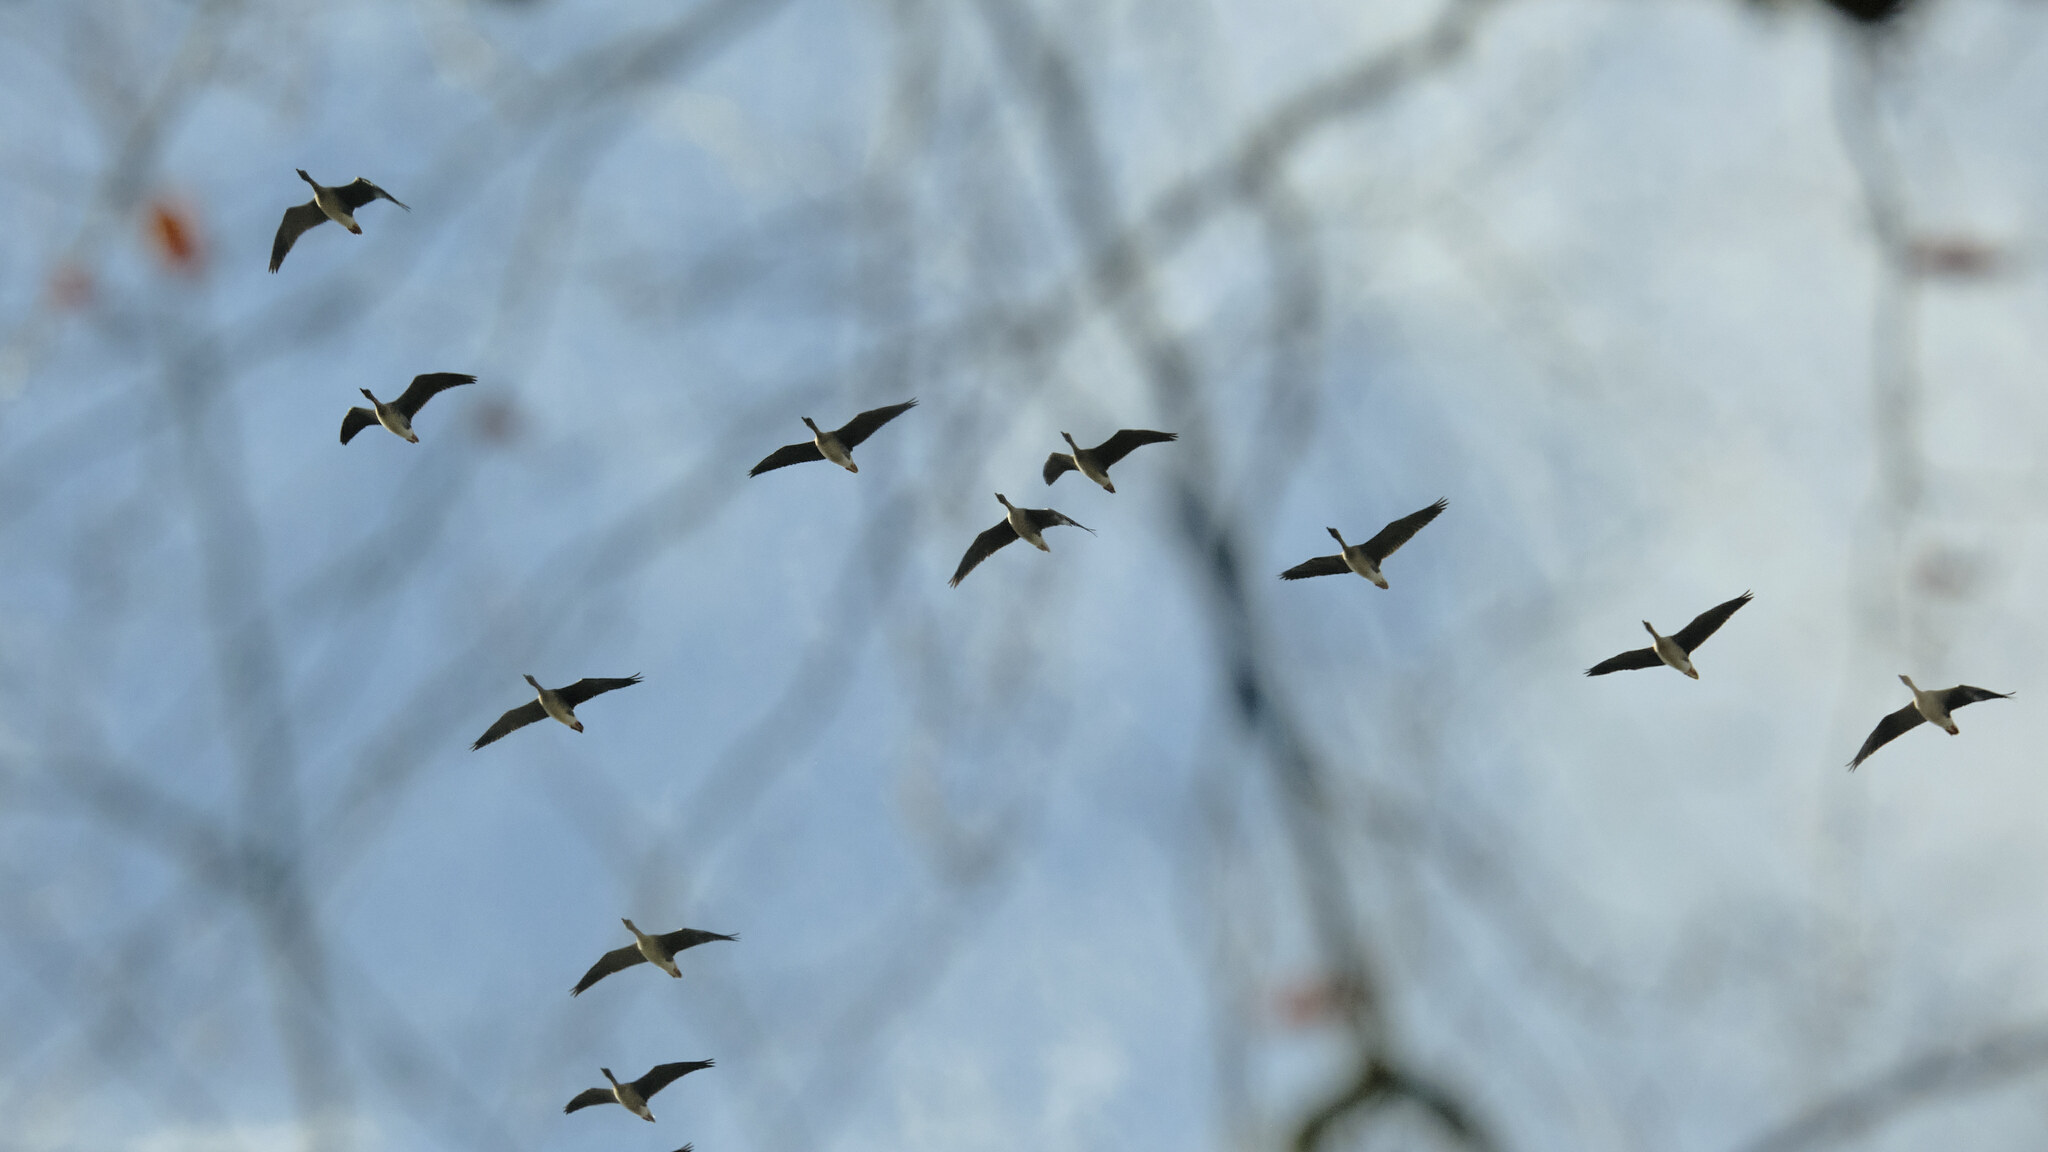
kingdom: Animalia
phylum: Chordata
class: Aves
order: Anseriformes
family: Anatidae
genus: Anser
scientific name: Anser serrirostris
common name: Tundra bean goose
